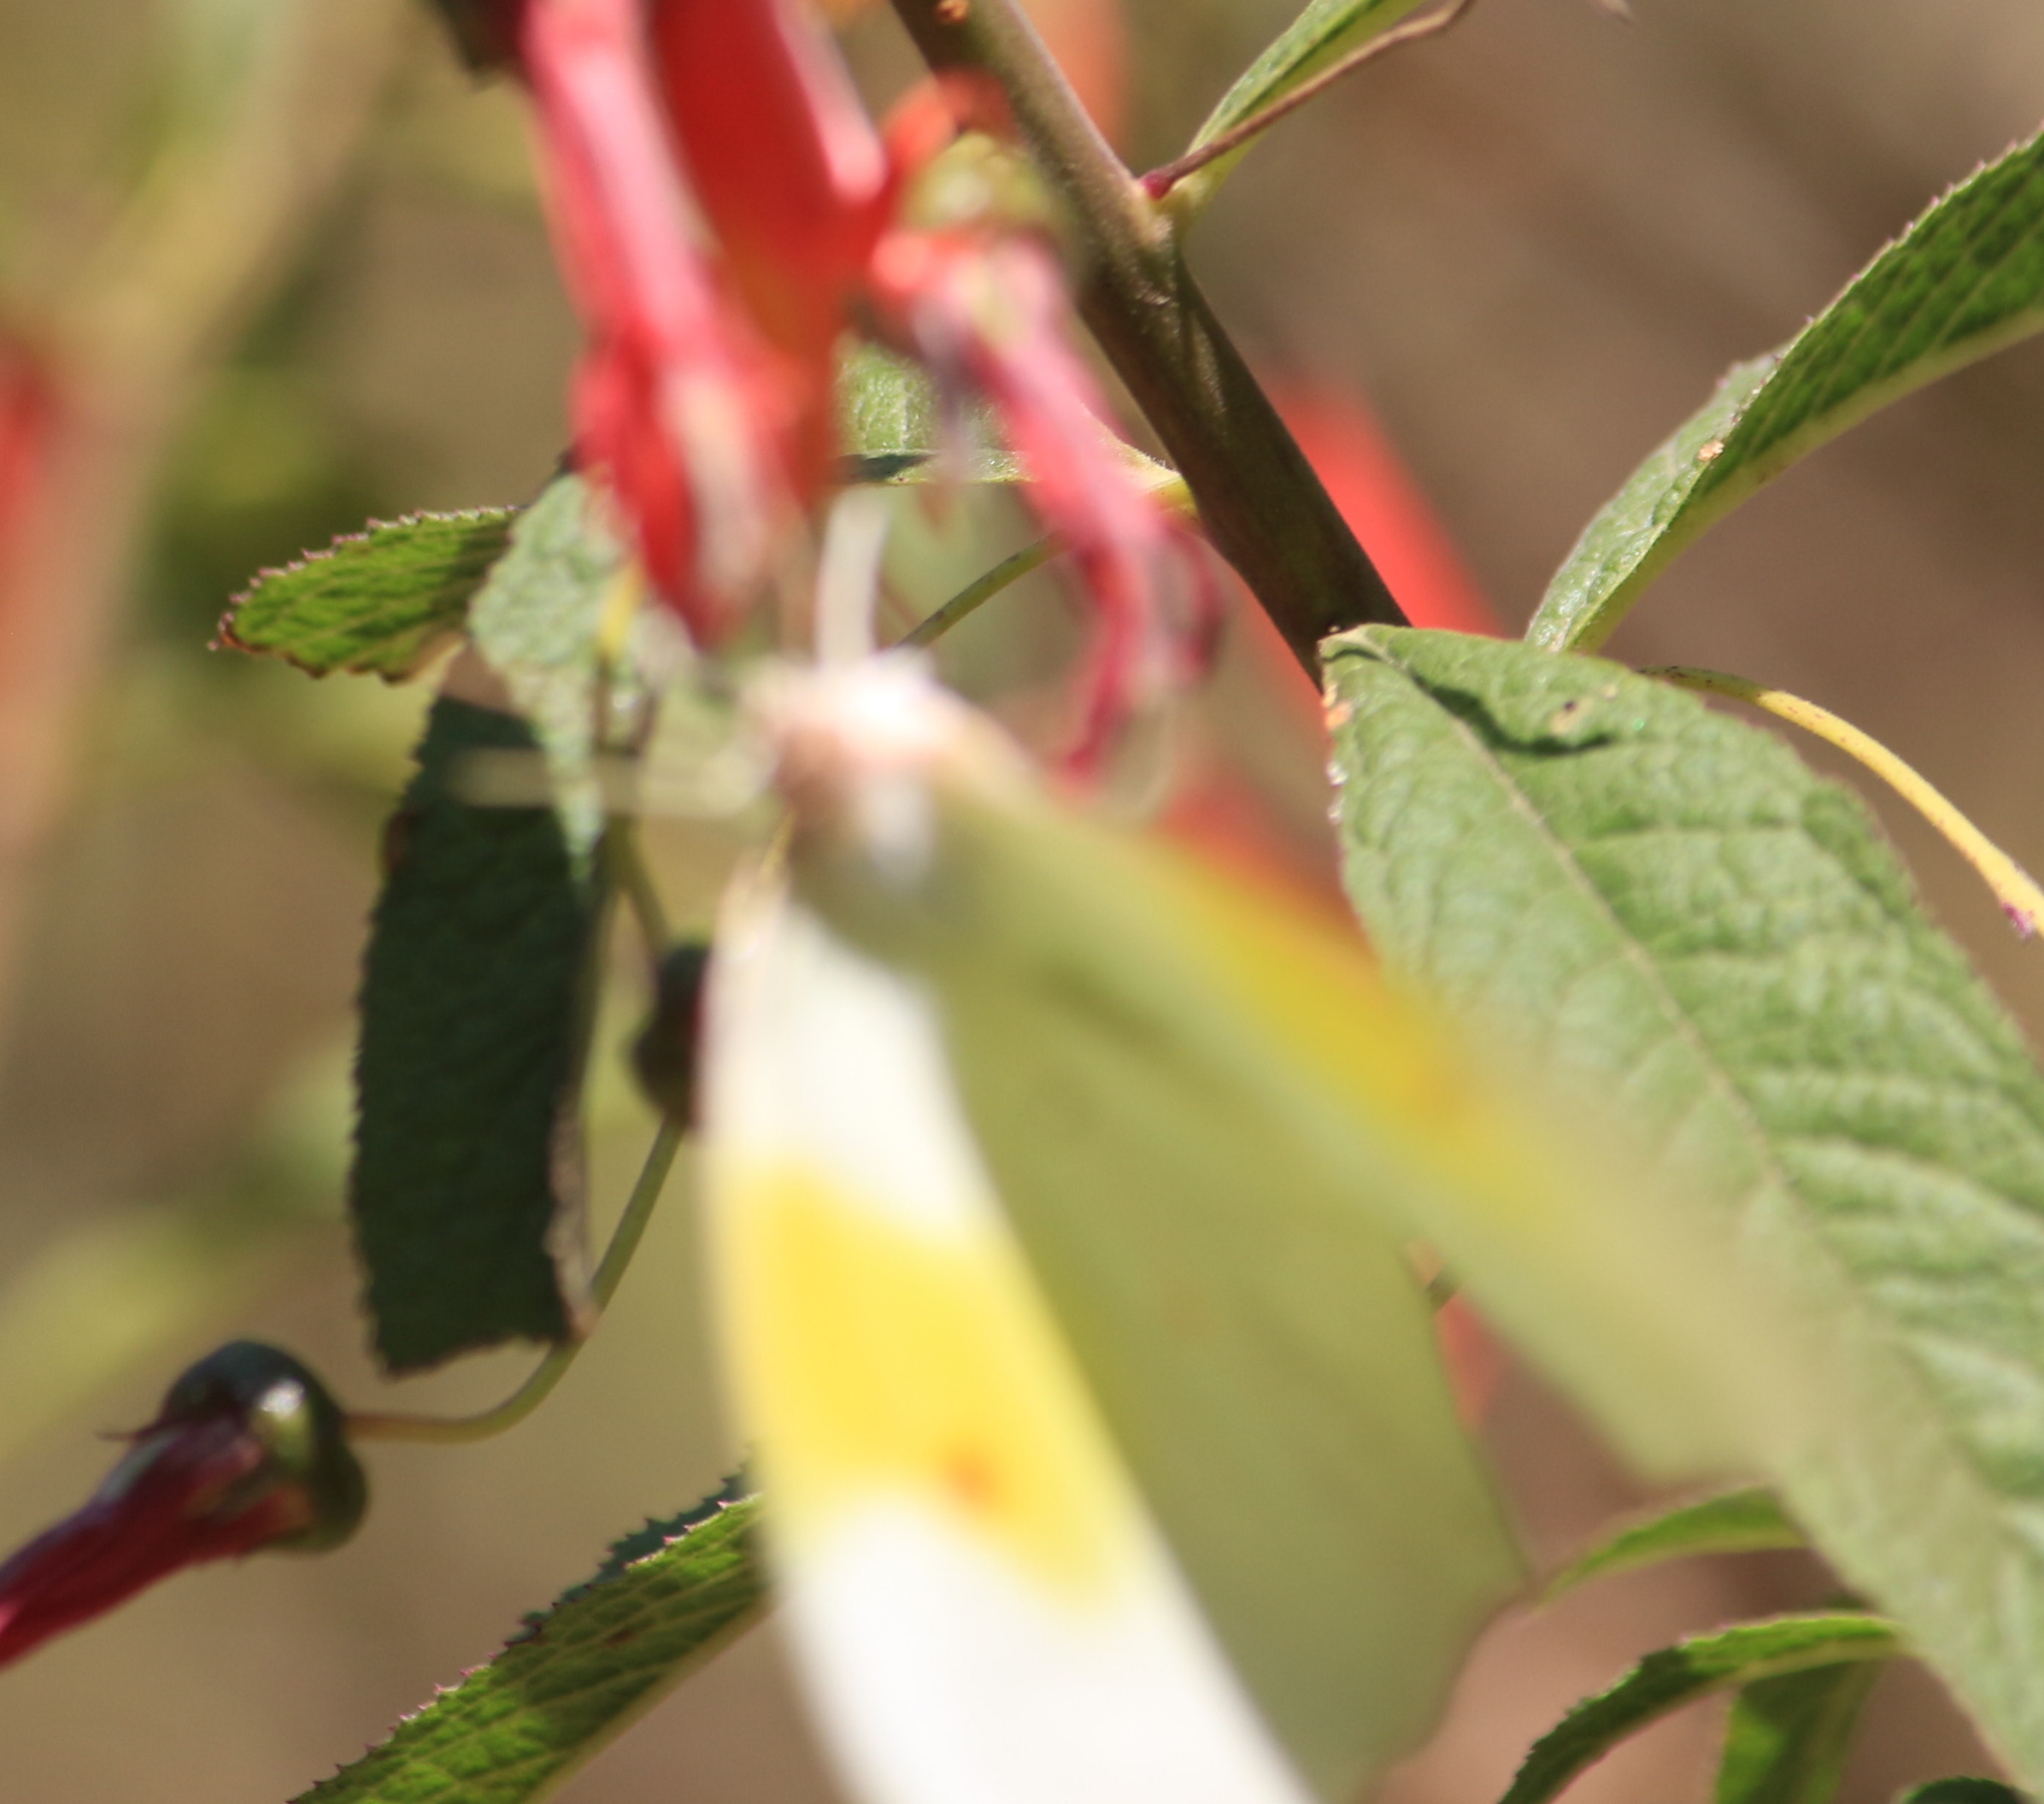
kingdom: Animalia
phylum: Arthropoda
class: Insecta
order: Lepidoptera
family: Pieridae
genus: Anteos
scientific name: Anteos clorinde
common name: White angled sulphur
